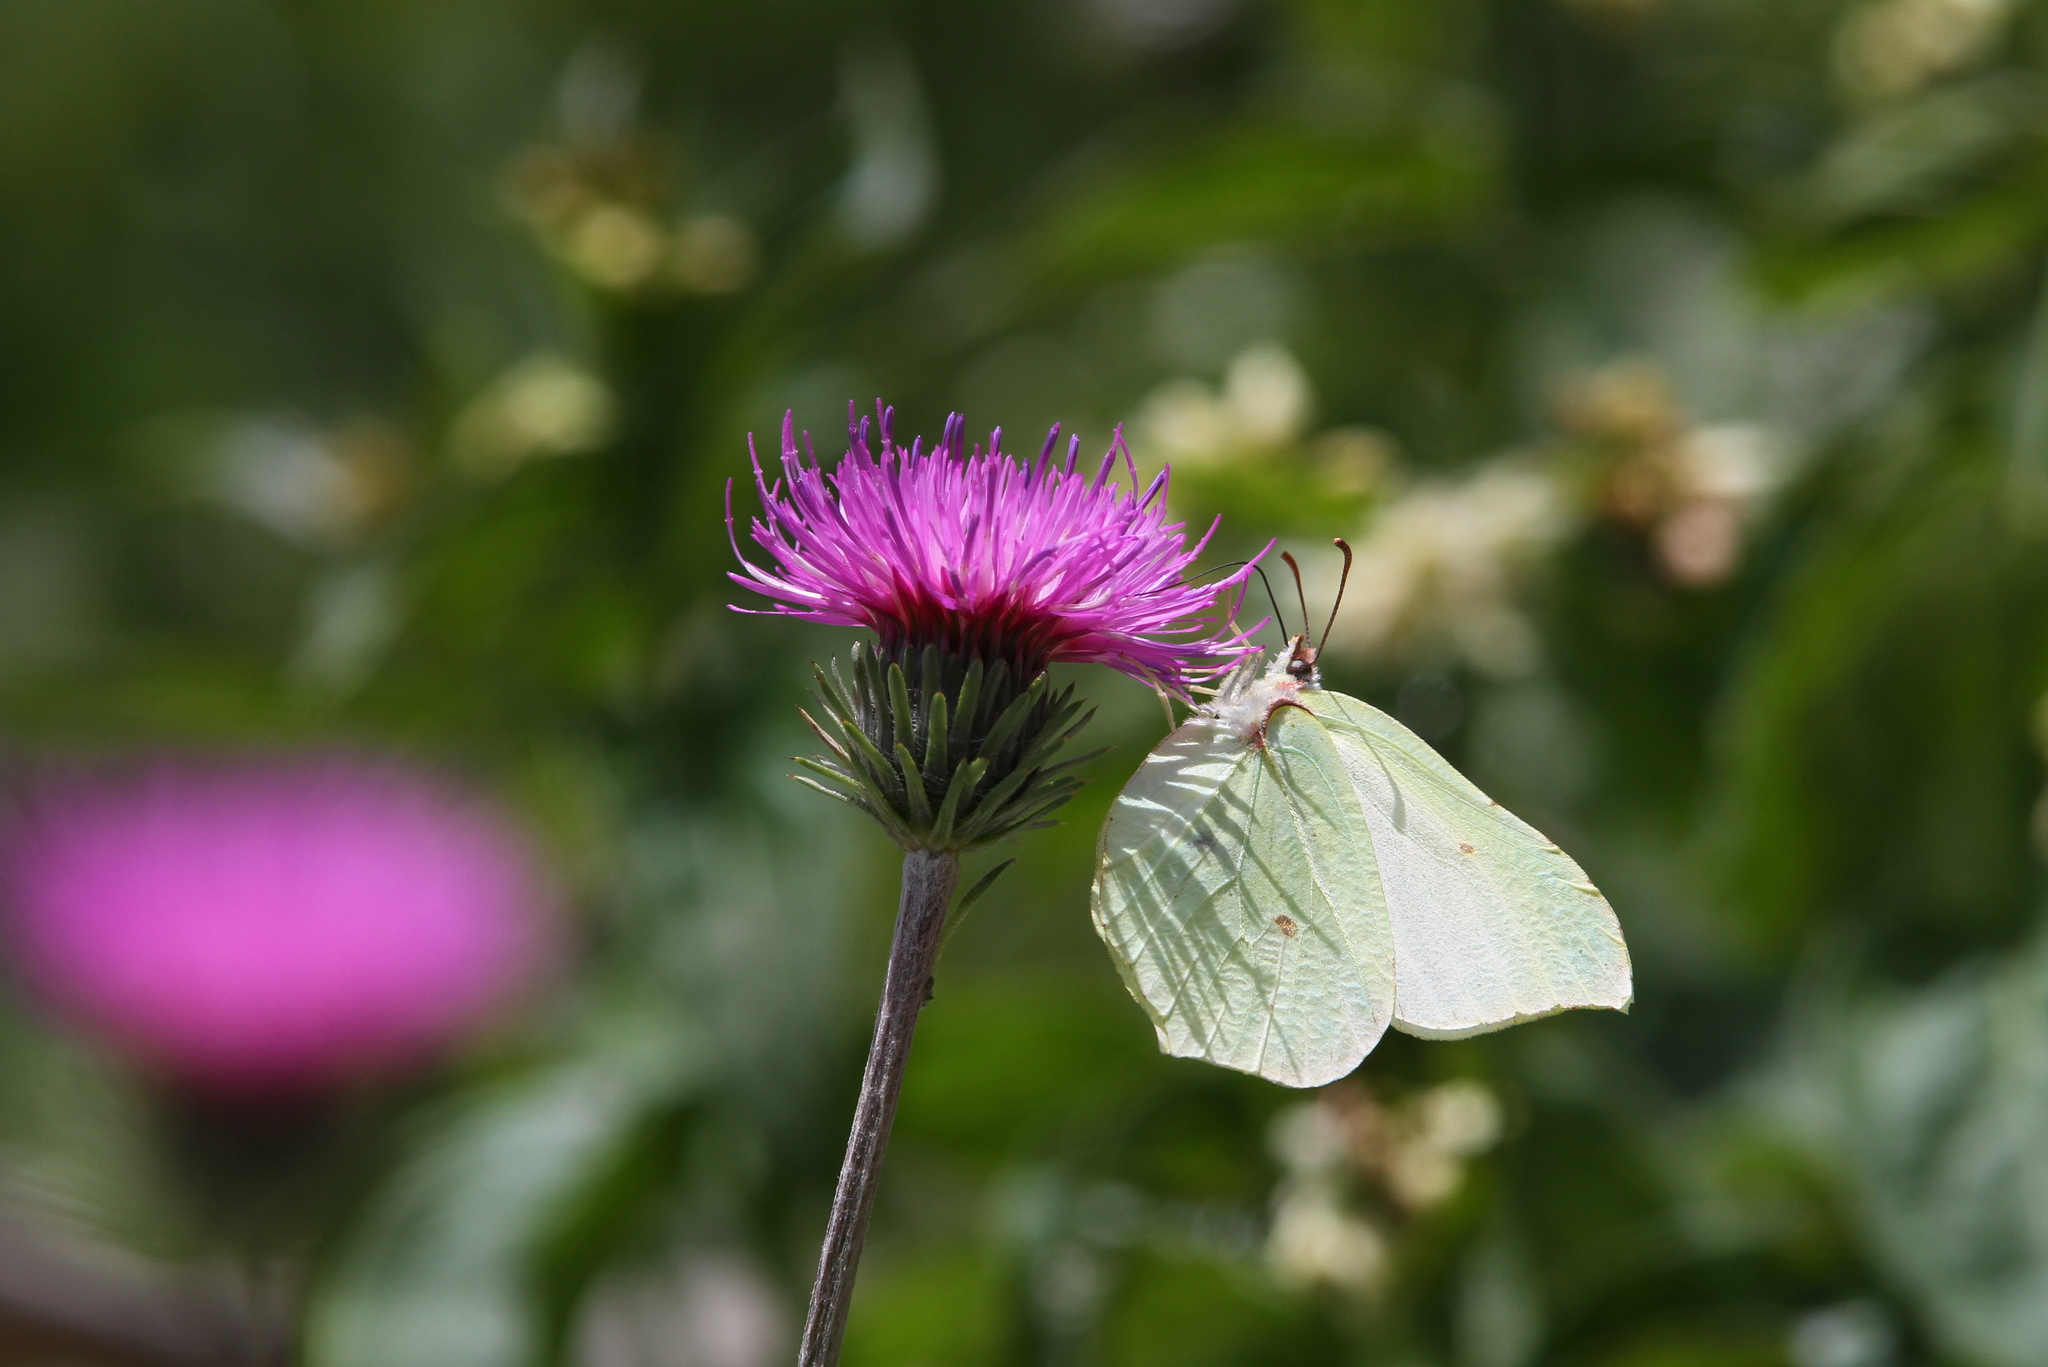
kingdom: Animalia
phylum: Arthropoda
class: Insecta
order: Lepidoptera
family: Pieridae
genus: Gonepteryx
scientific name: Gonepteryx rhamni
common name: Brimstone
